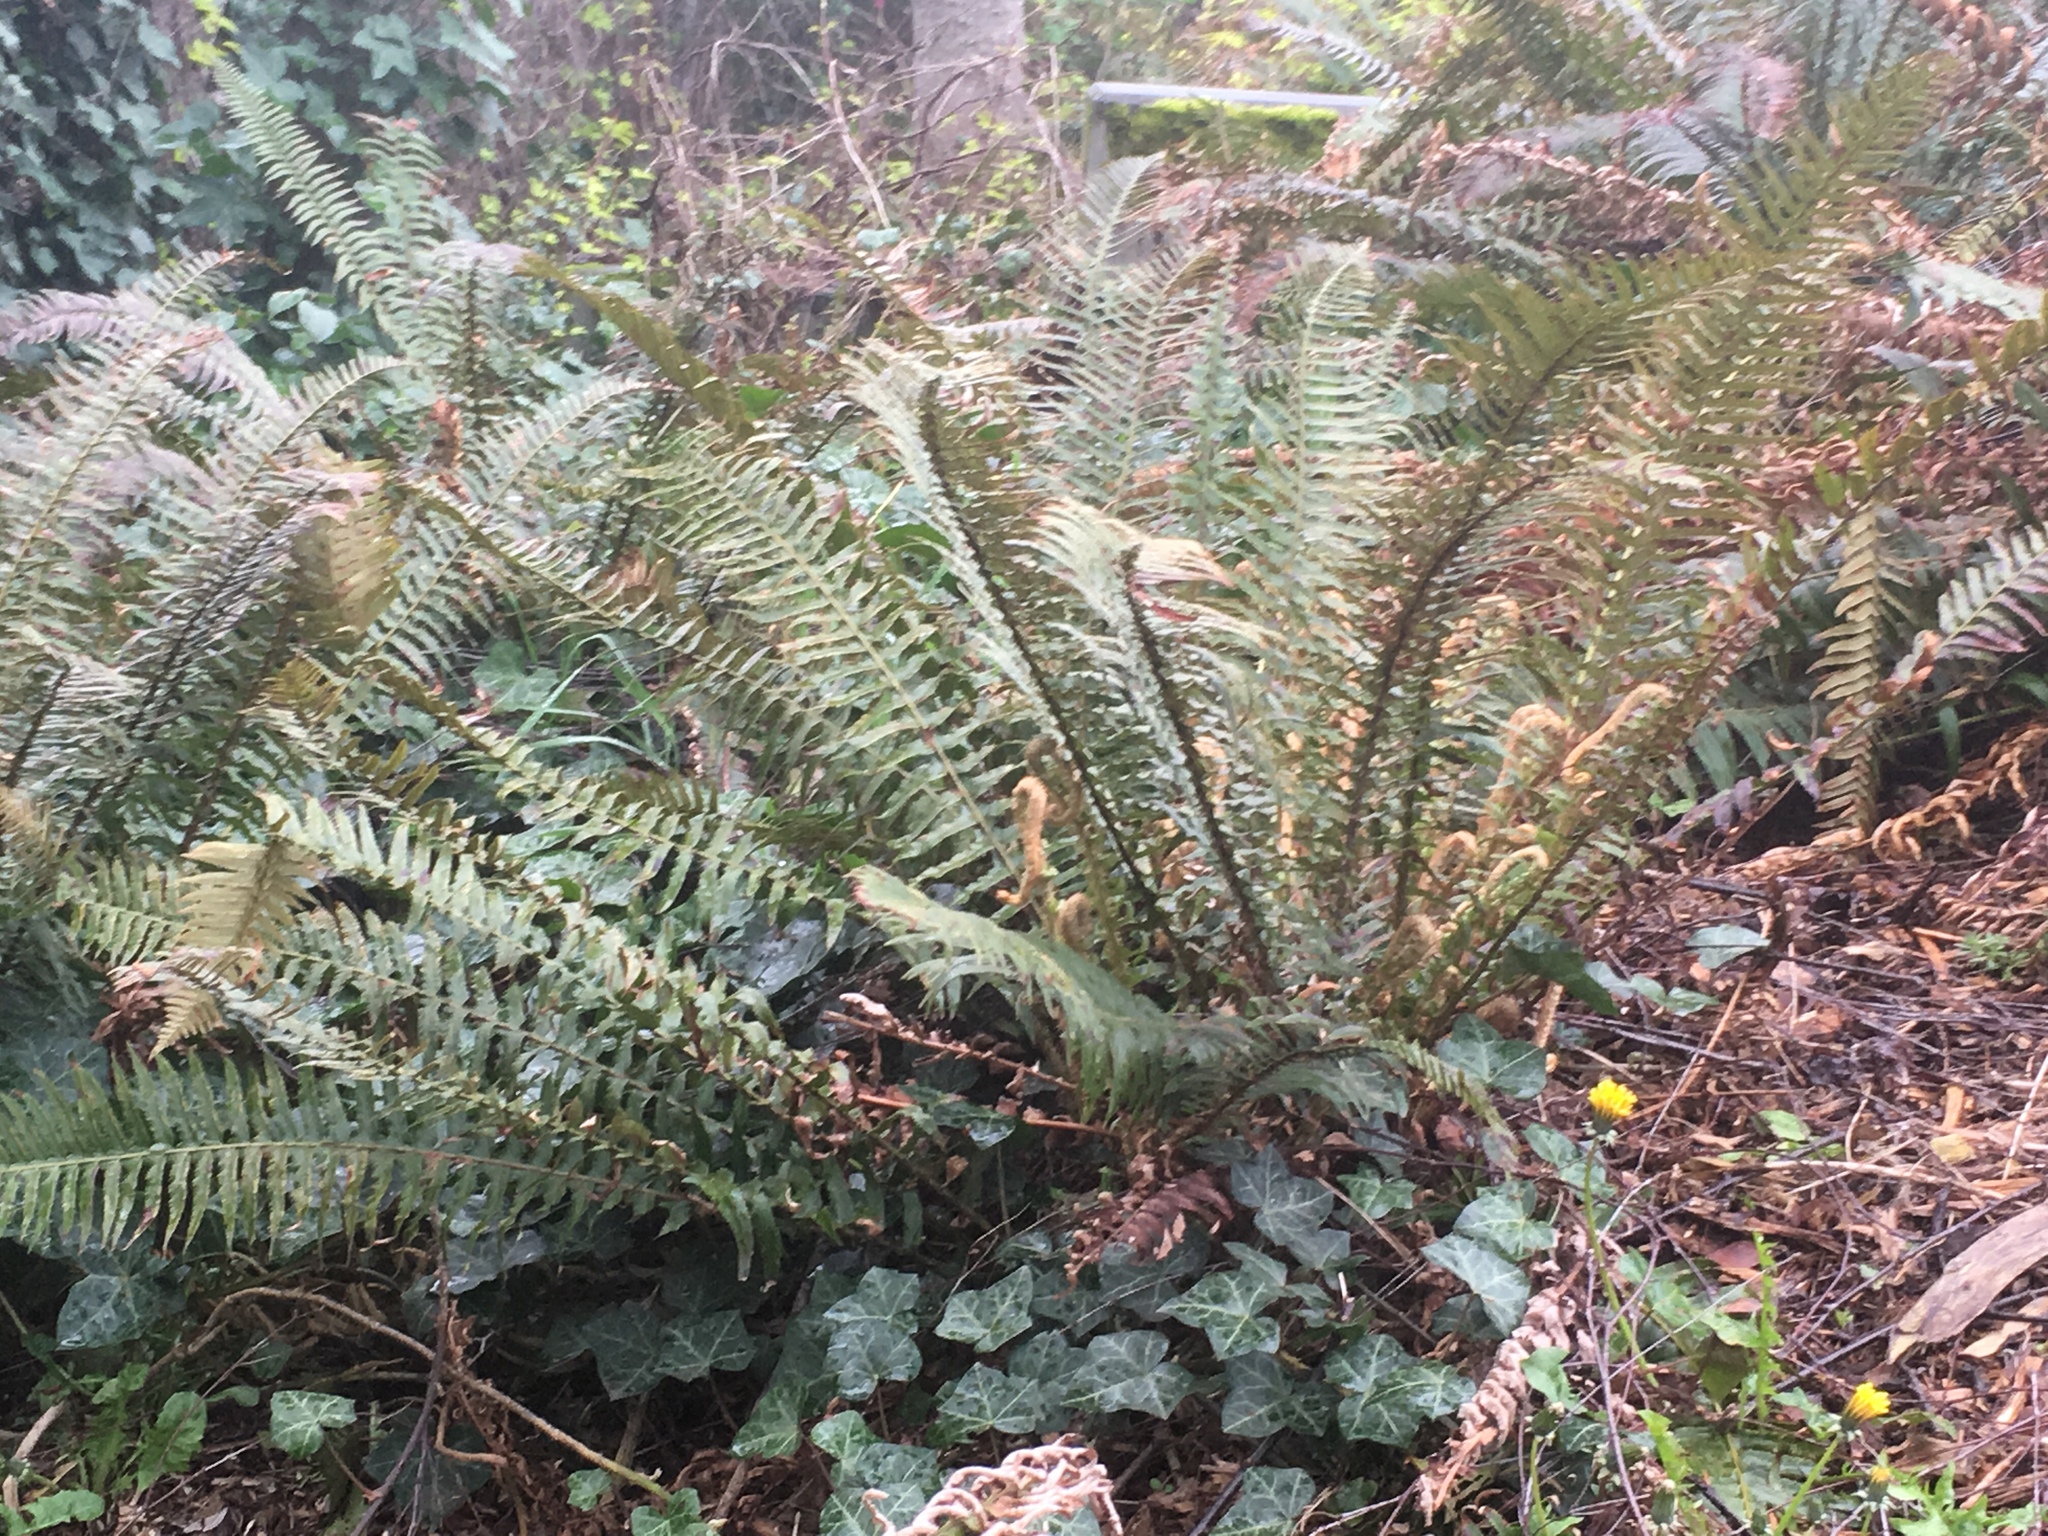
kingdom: Plantae
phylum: Tracheophyta
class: Polypodiopsida
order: Polypodiales
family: Dryopteridaceae
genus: Polystichum
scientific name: Polystichum munitum
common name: Western sword-fern
